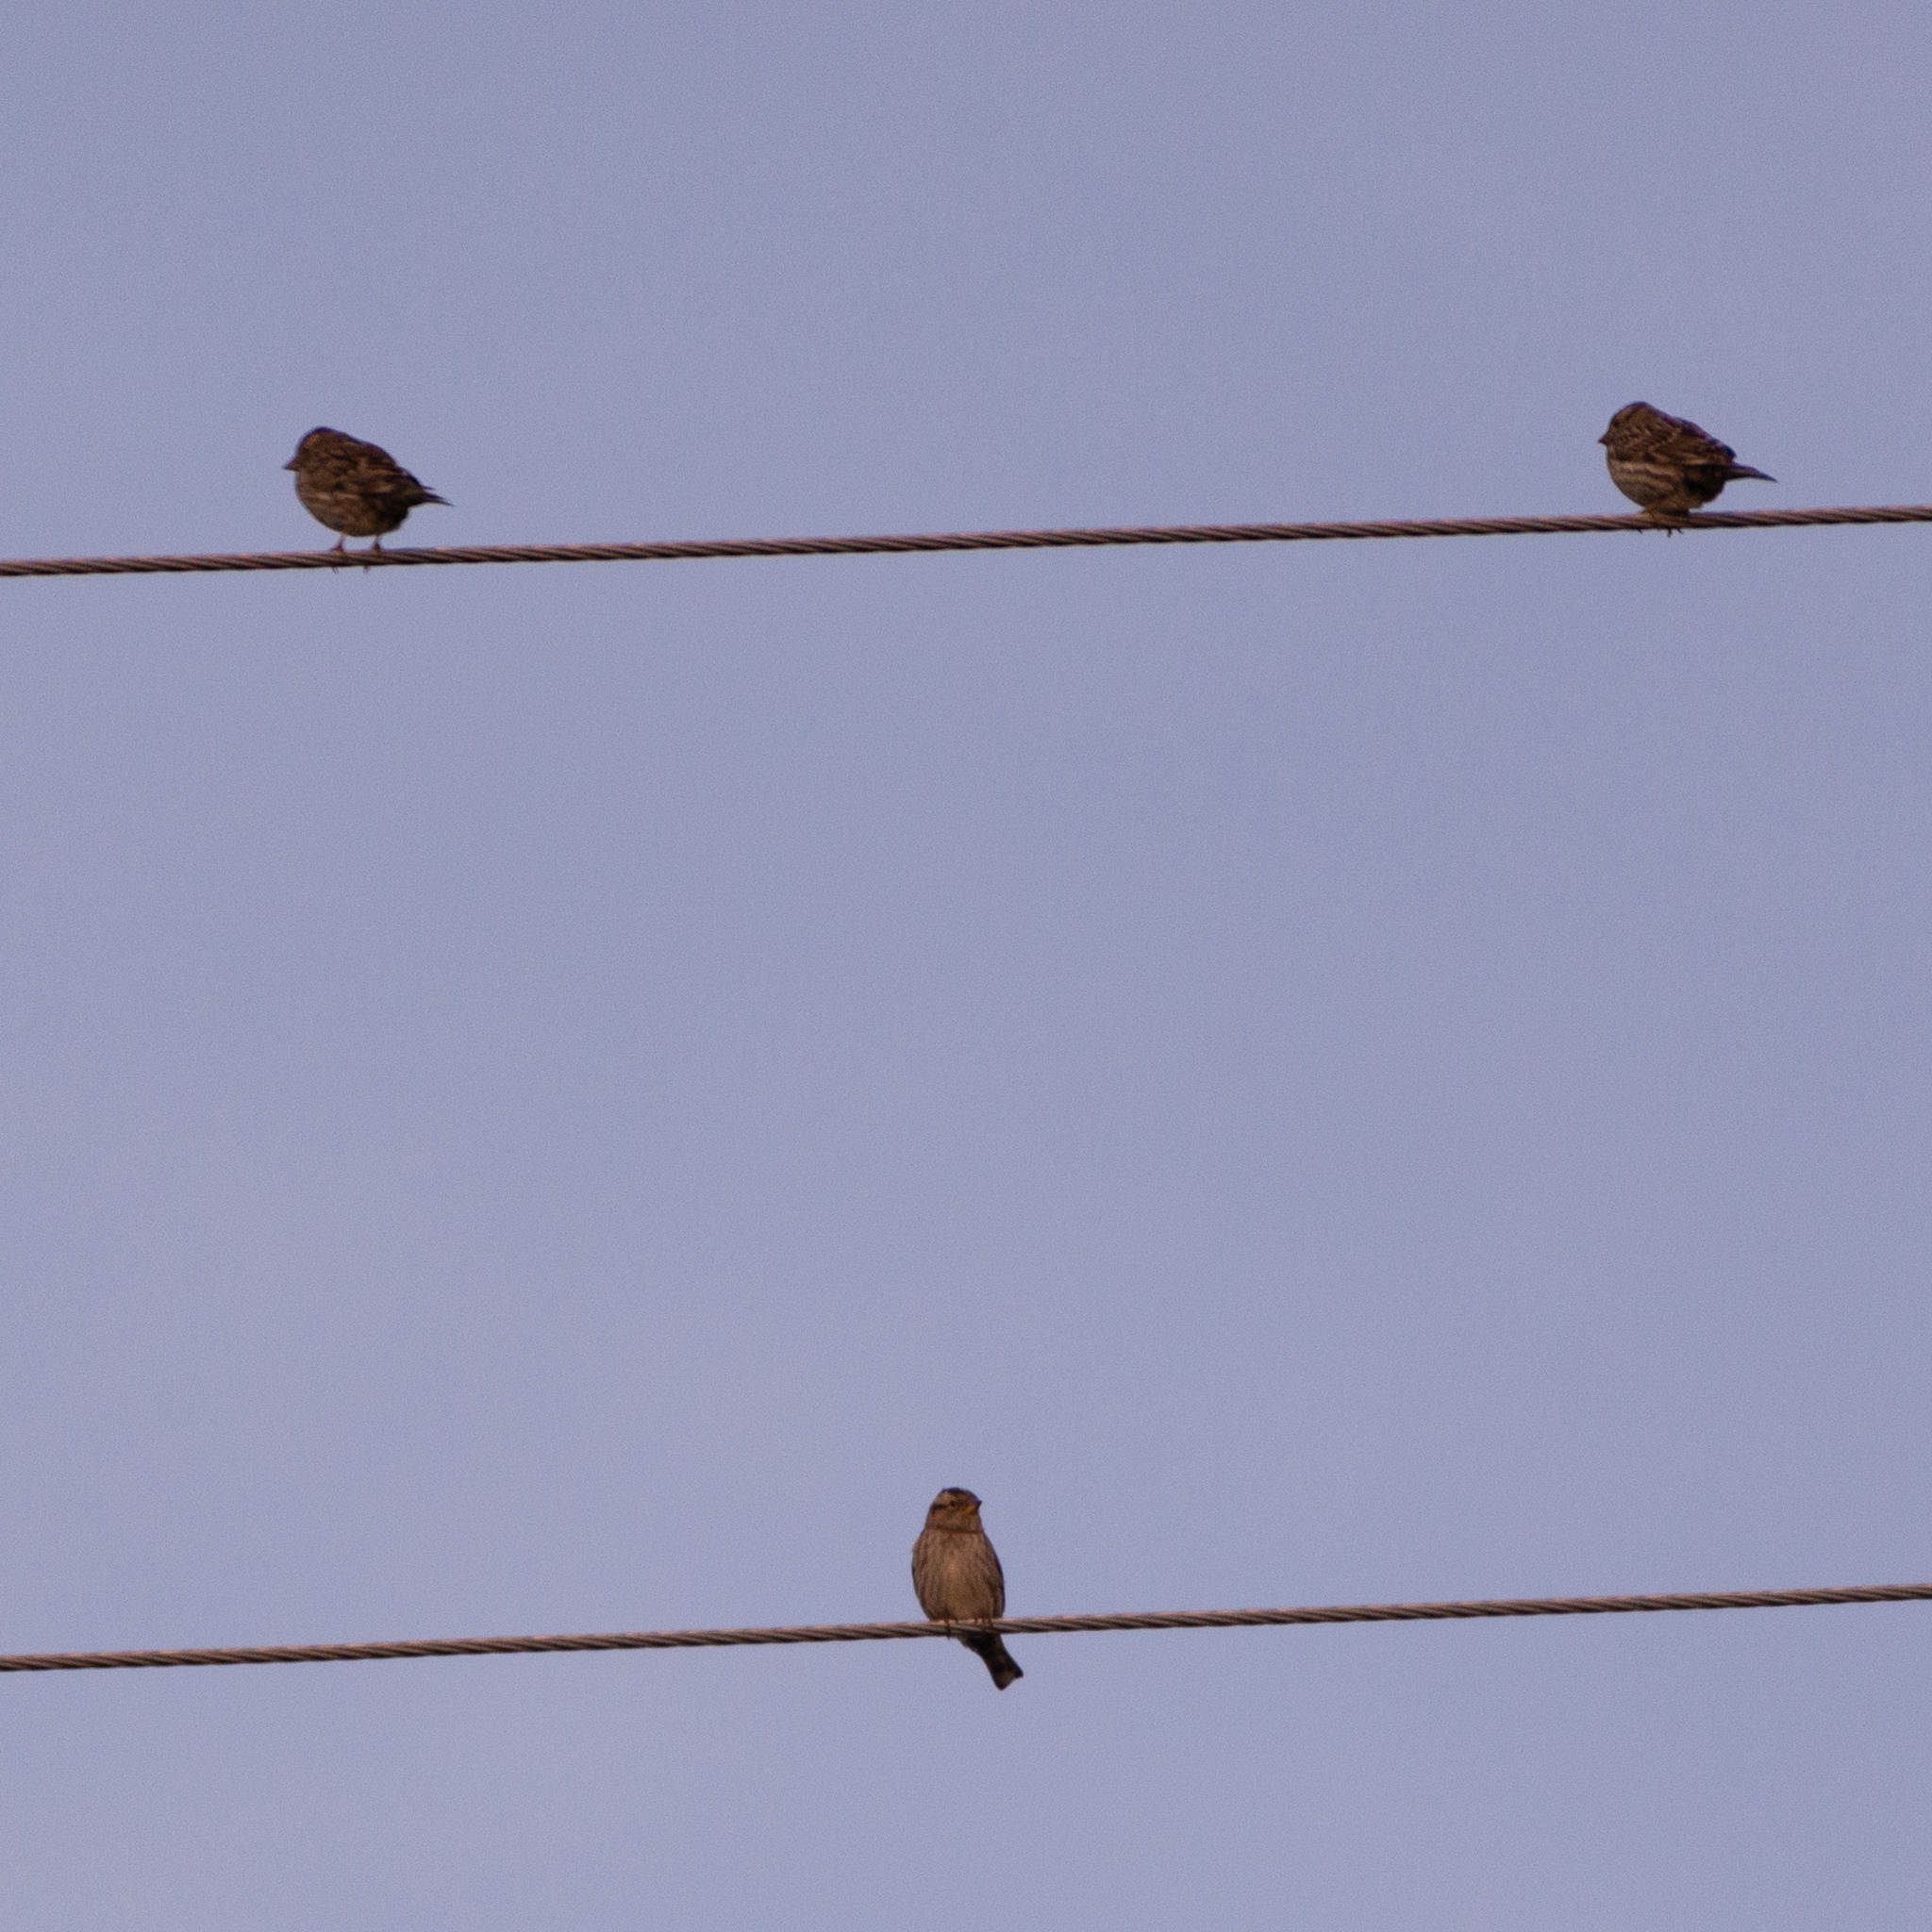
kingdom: Animalia
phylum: Chordata
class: Aves
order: Passeriformes
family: Passeridae
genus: Petronia
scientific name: Petronia petronia
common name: Rock sparrow
